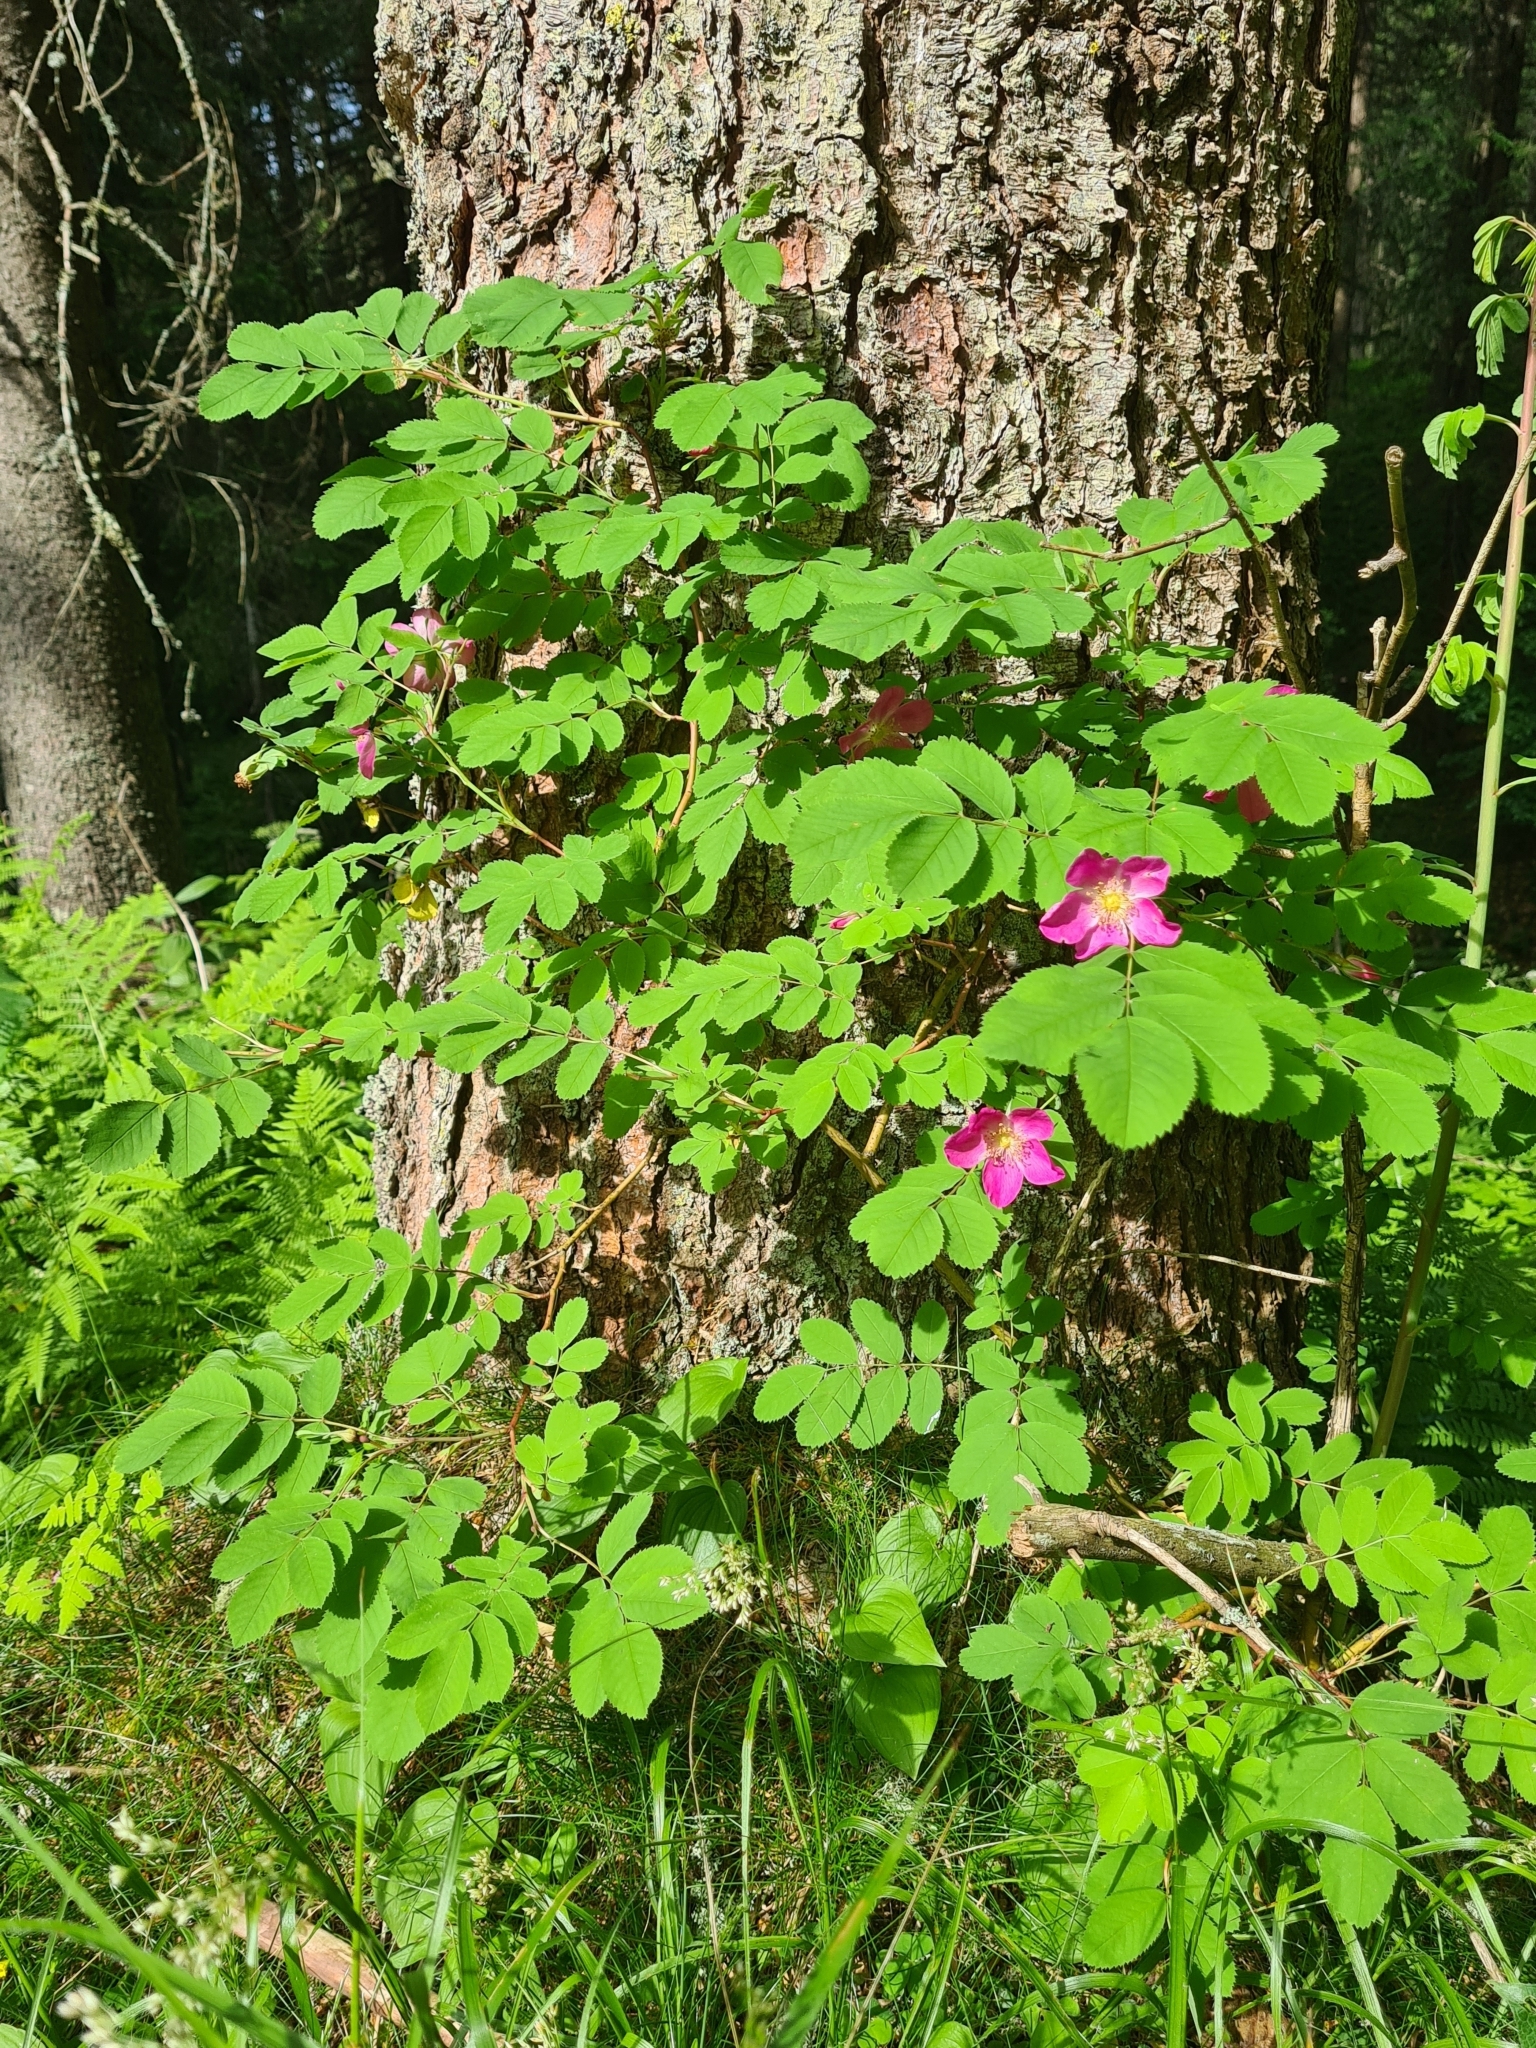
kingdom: Plantae
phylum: Tracheophyta
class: Magnoliopsida
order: Rosales
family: Rosaceae
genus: Rosa
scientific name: Rosa pendulina
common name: Alpine rose
